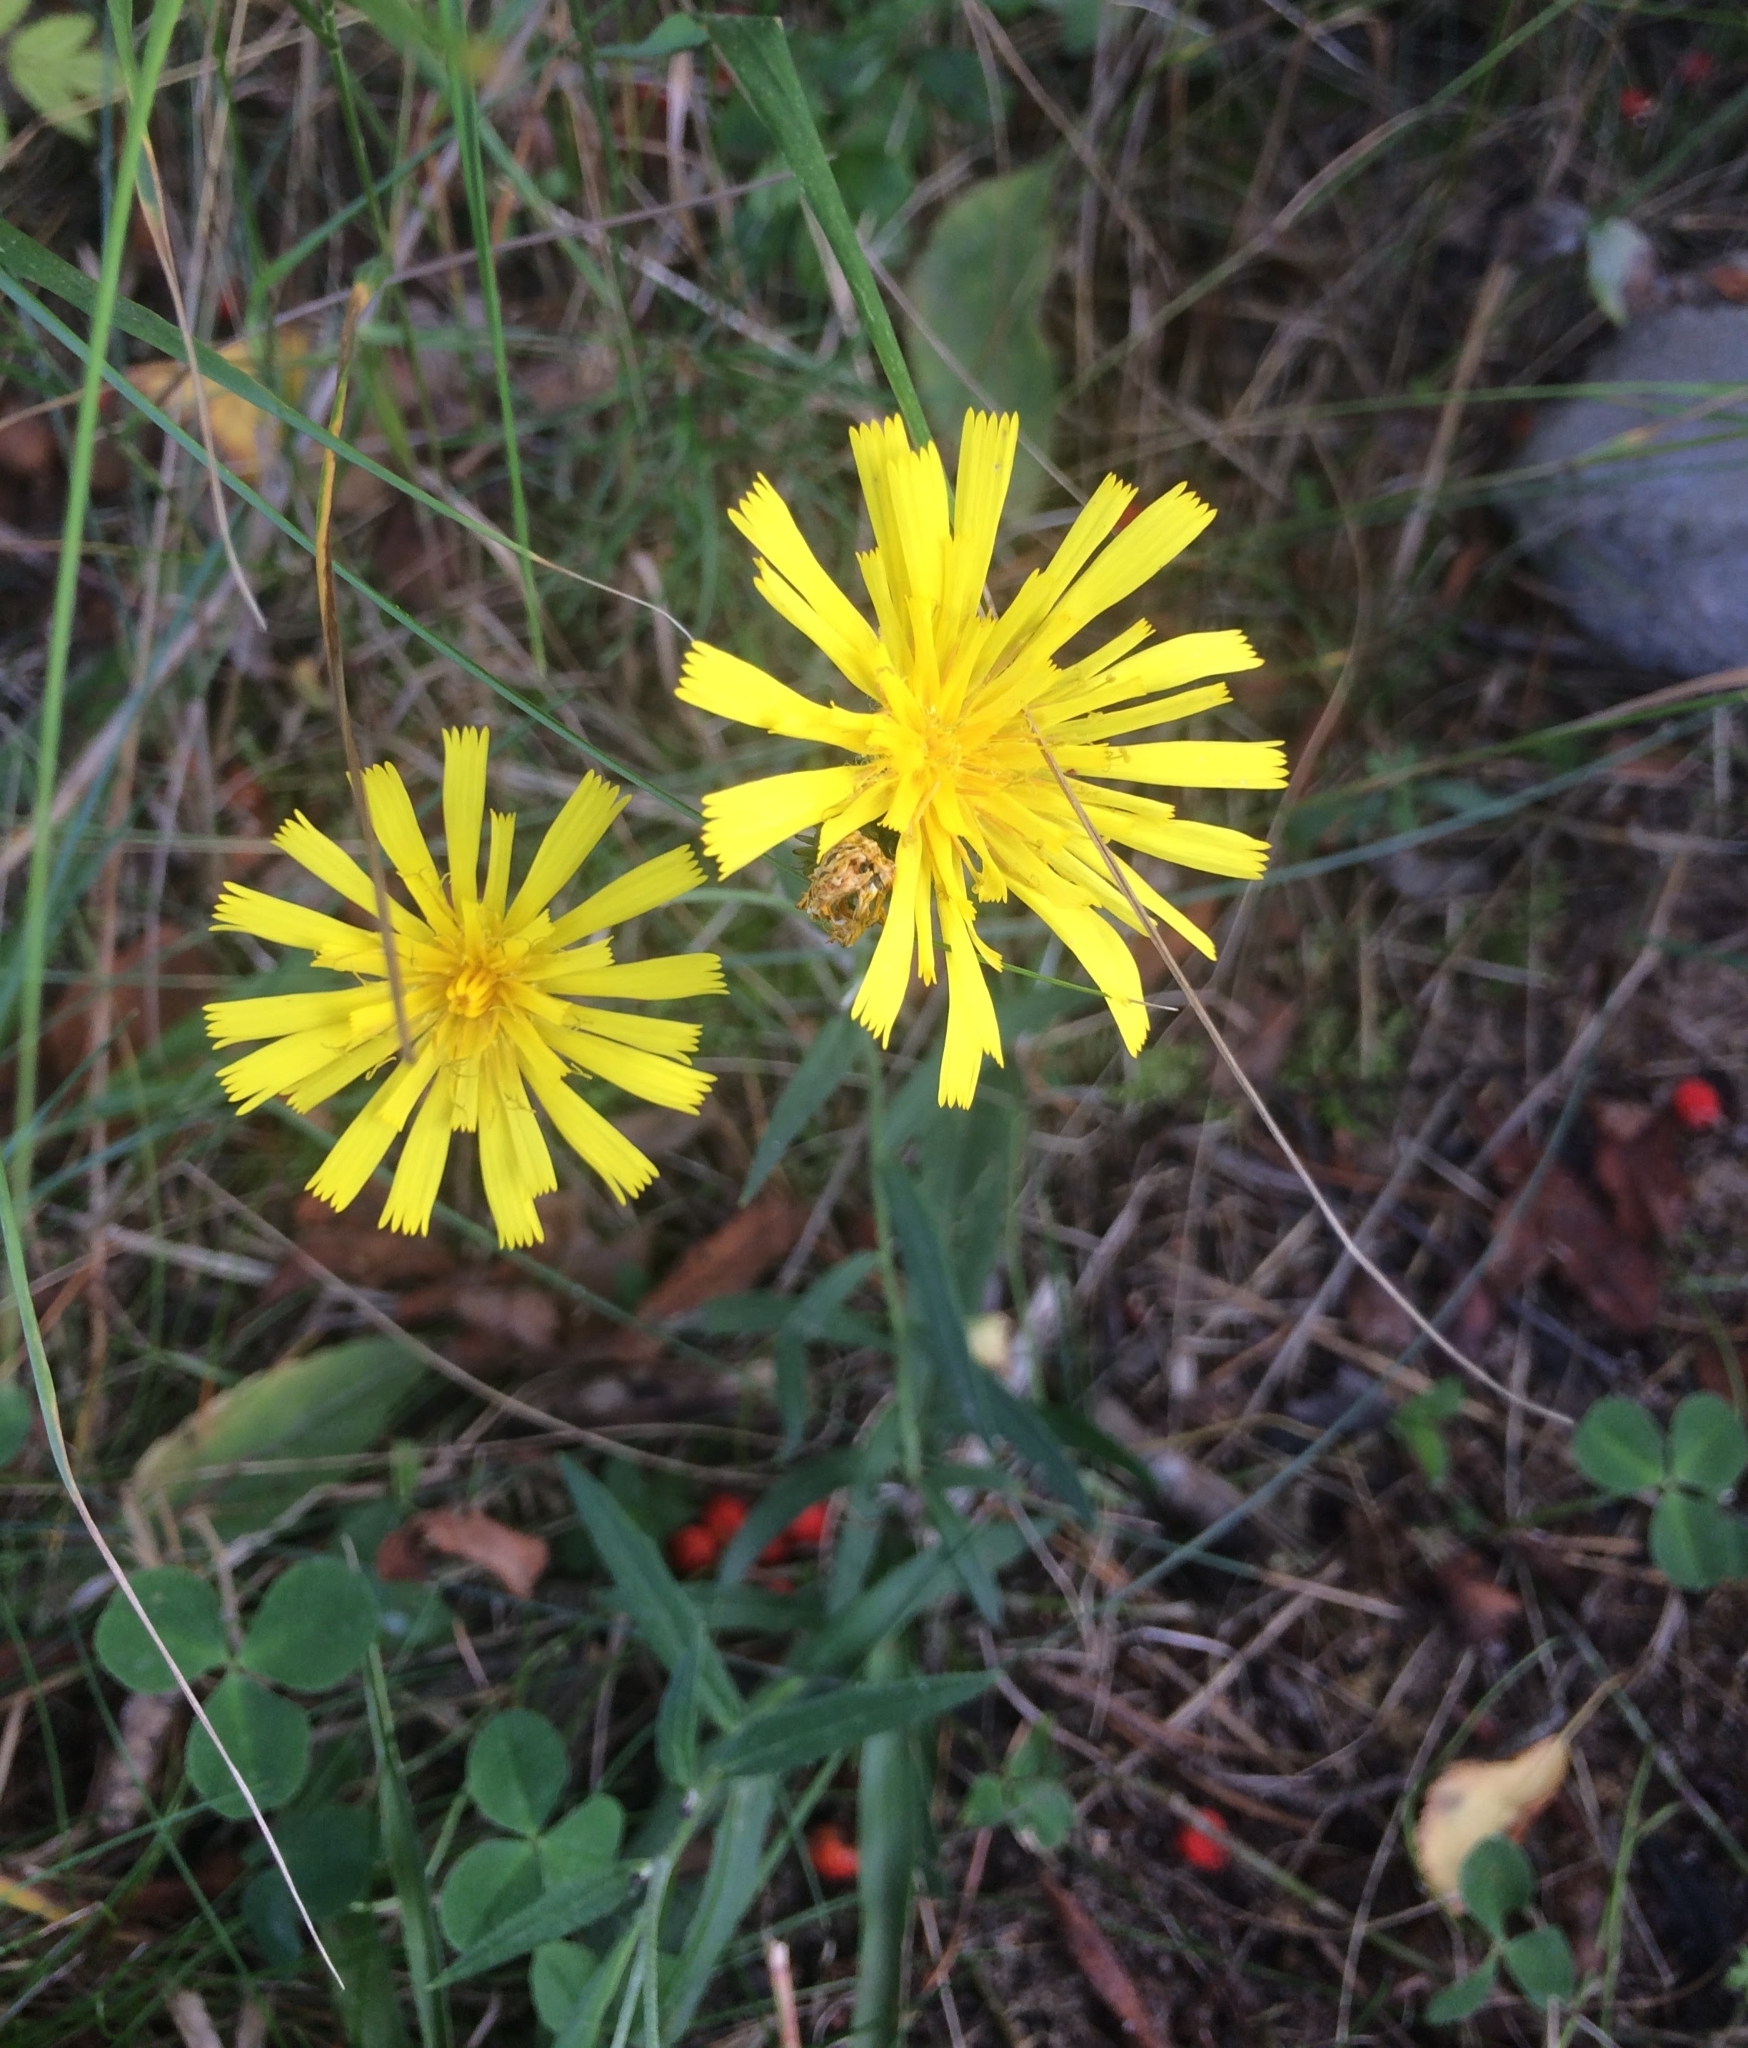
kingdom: Plantae
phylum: Tracheophyta
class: Magnoliopsida
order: Asterales
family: Asteraceae
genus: Hieracium
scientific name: Hieracium umbellatum
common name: Northern hawkweed
